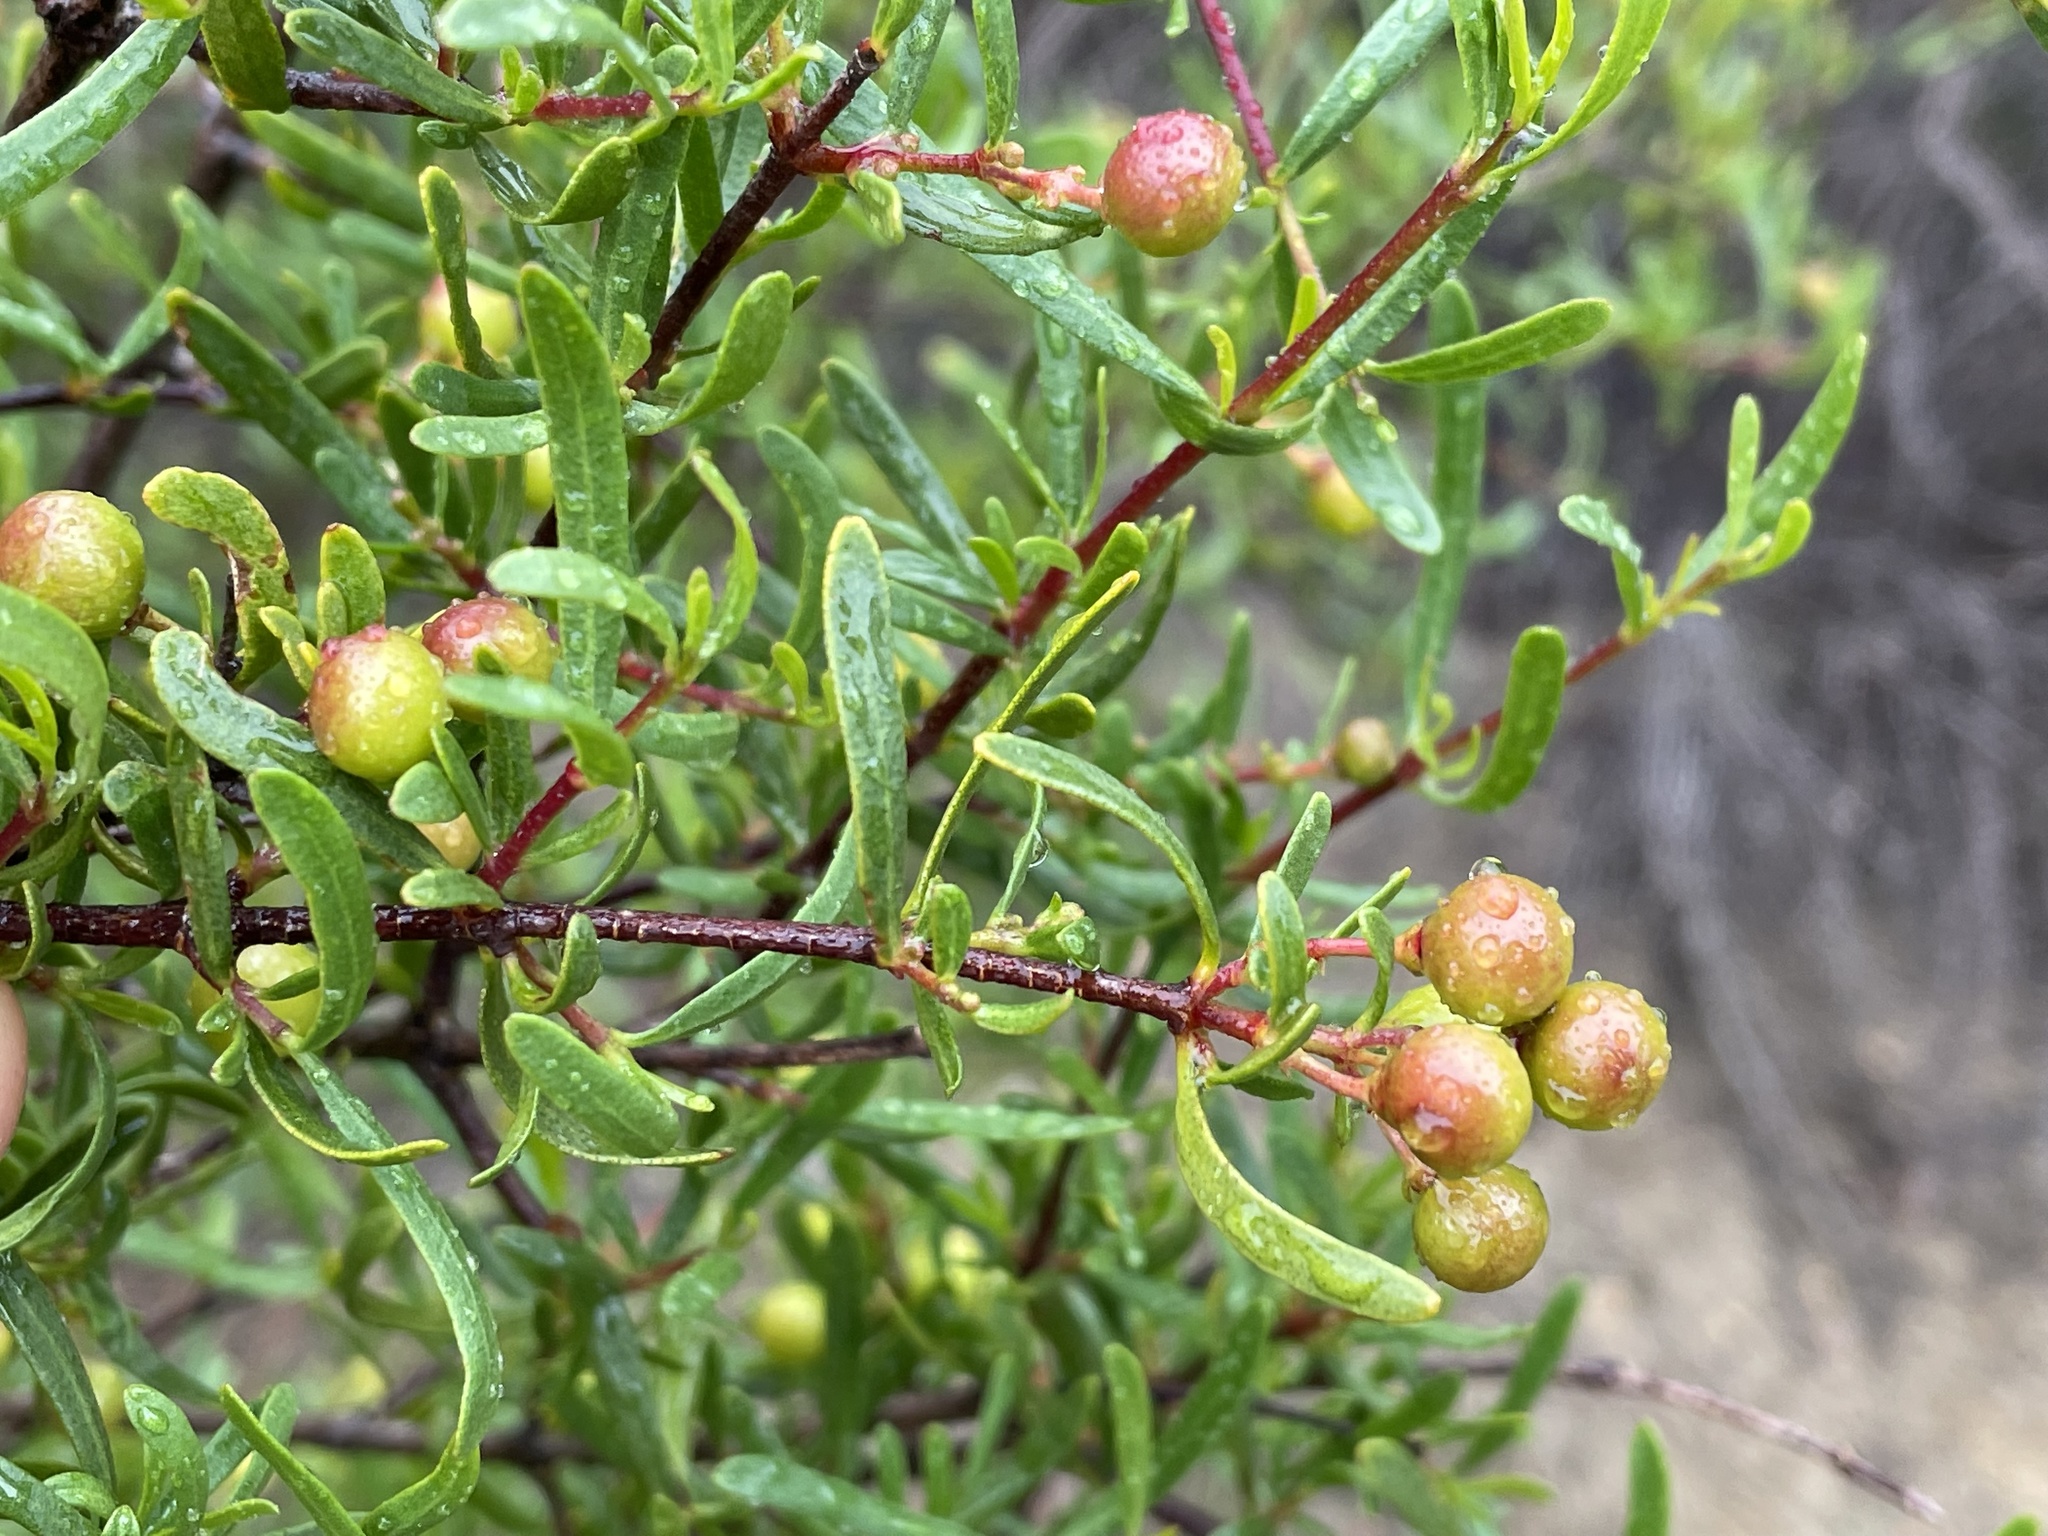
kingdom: Plantae
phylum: Tracheophyta
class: Magnoliopsida
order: Sapindales
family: Rutaceae
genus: Cneoridium
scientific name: Cneoridium dumosum
